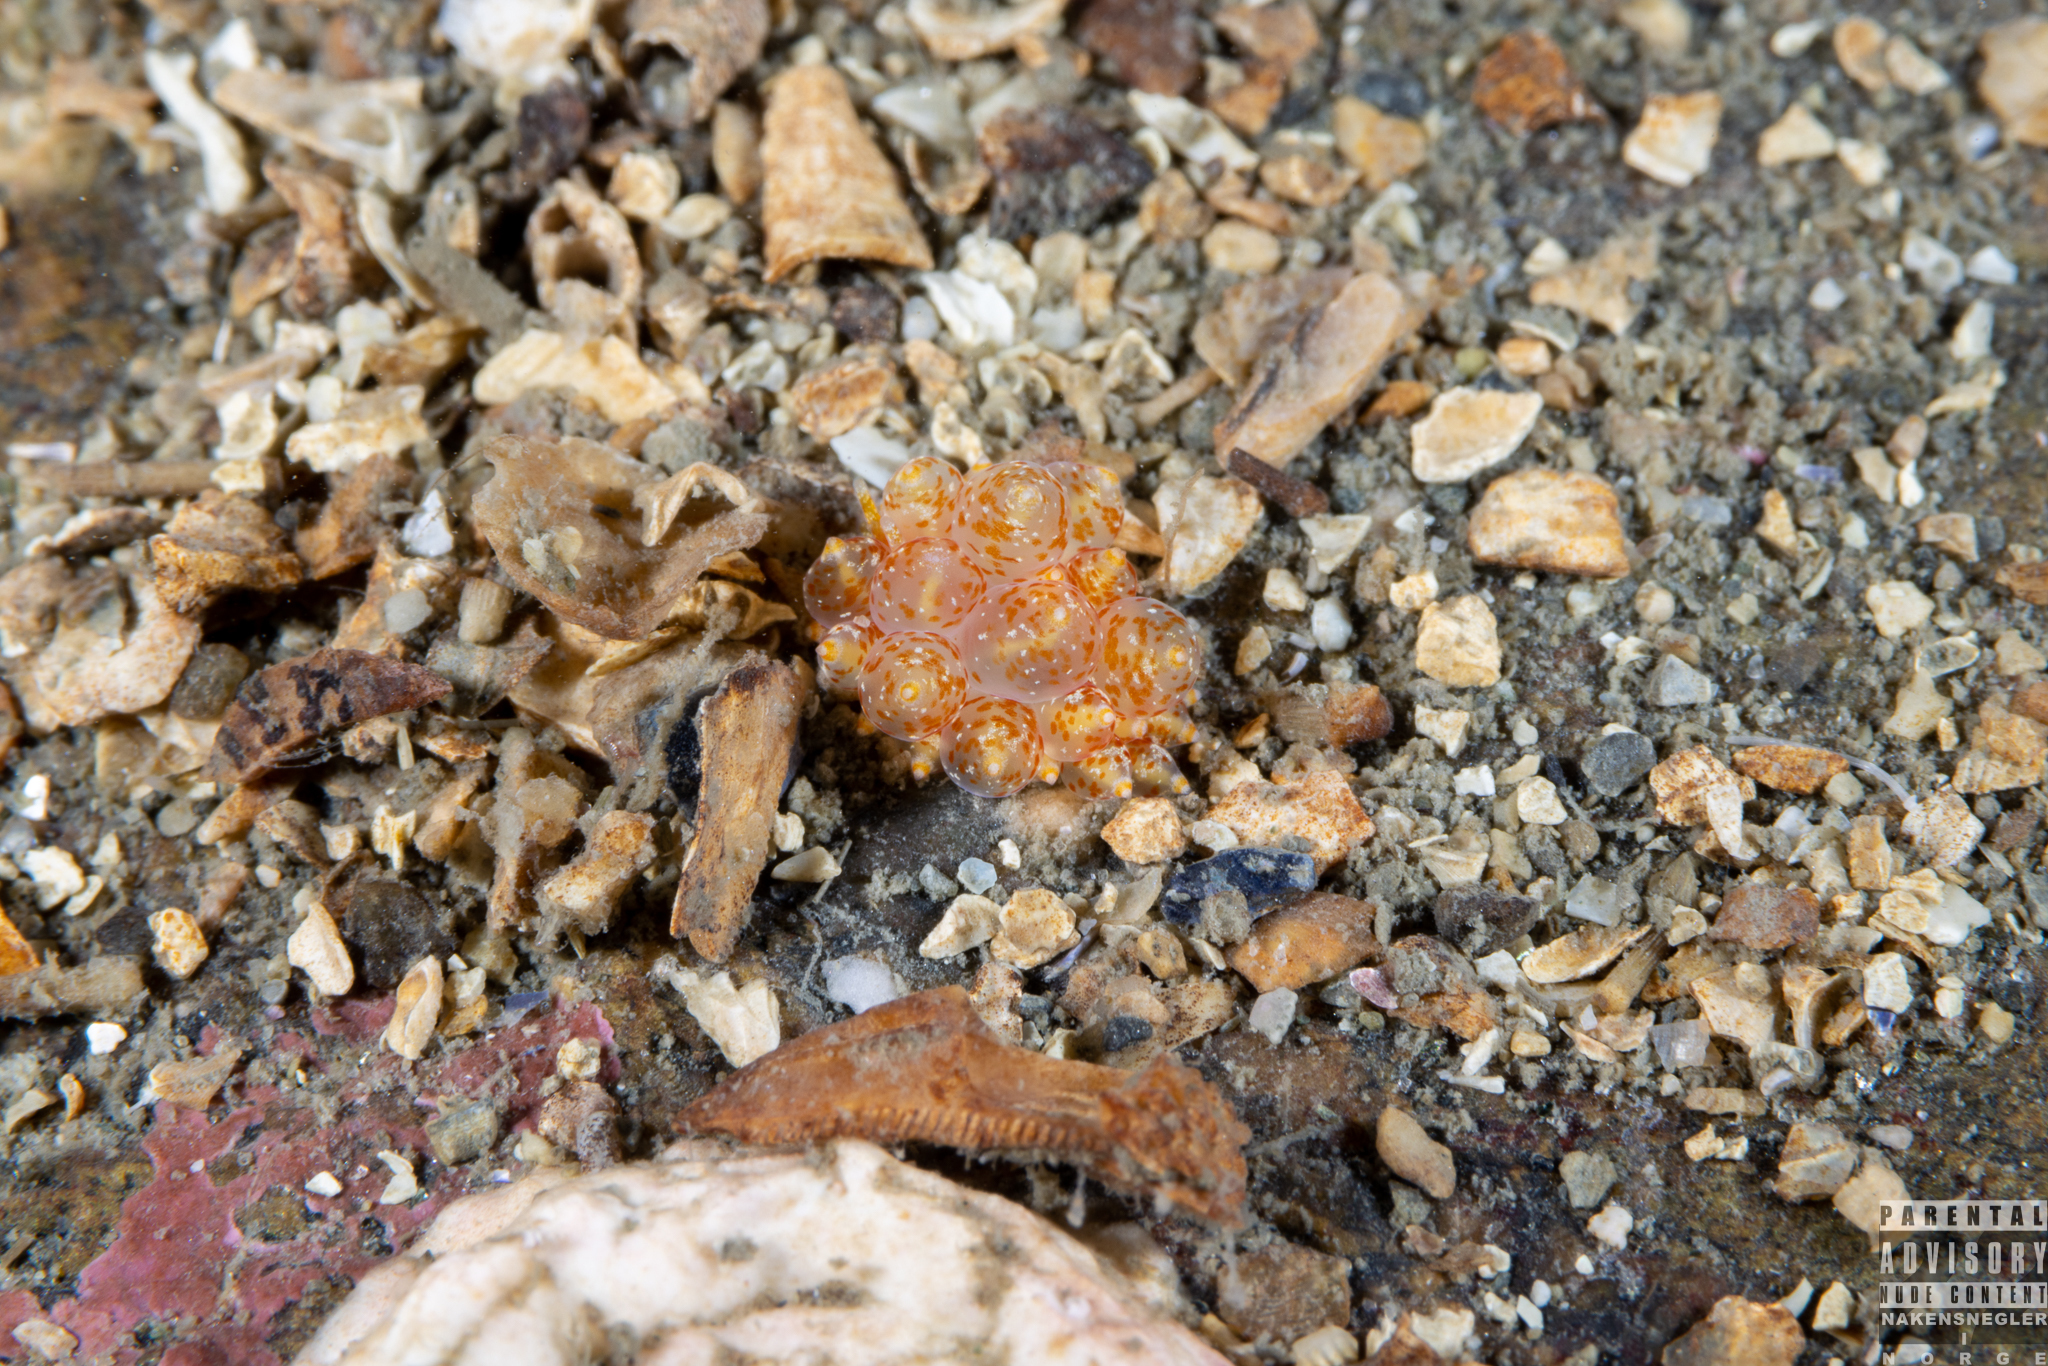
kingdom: Animalia
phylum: Mollusca
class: Gastropoda
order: Nudibranchia
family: Eubranchidae
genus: Amphorina
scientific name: Amphorina pallida
